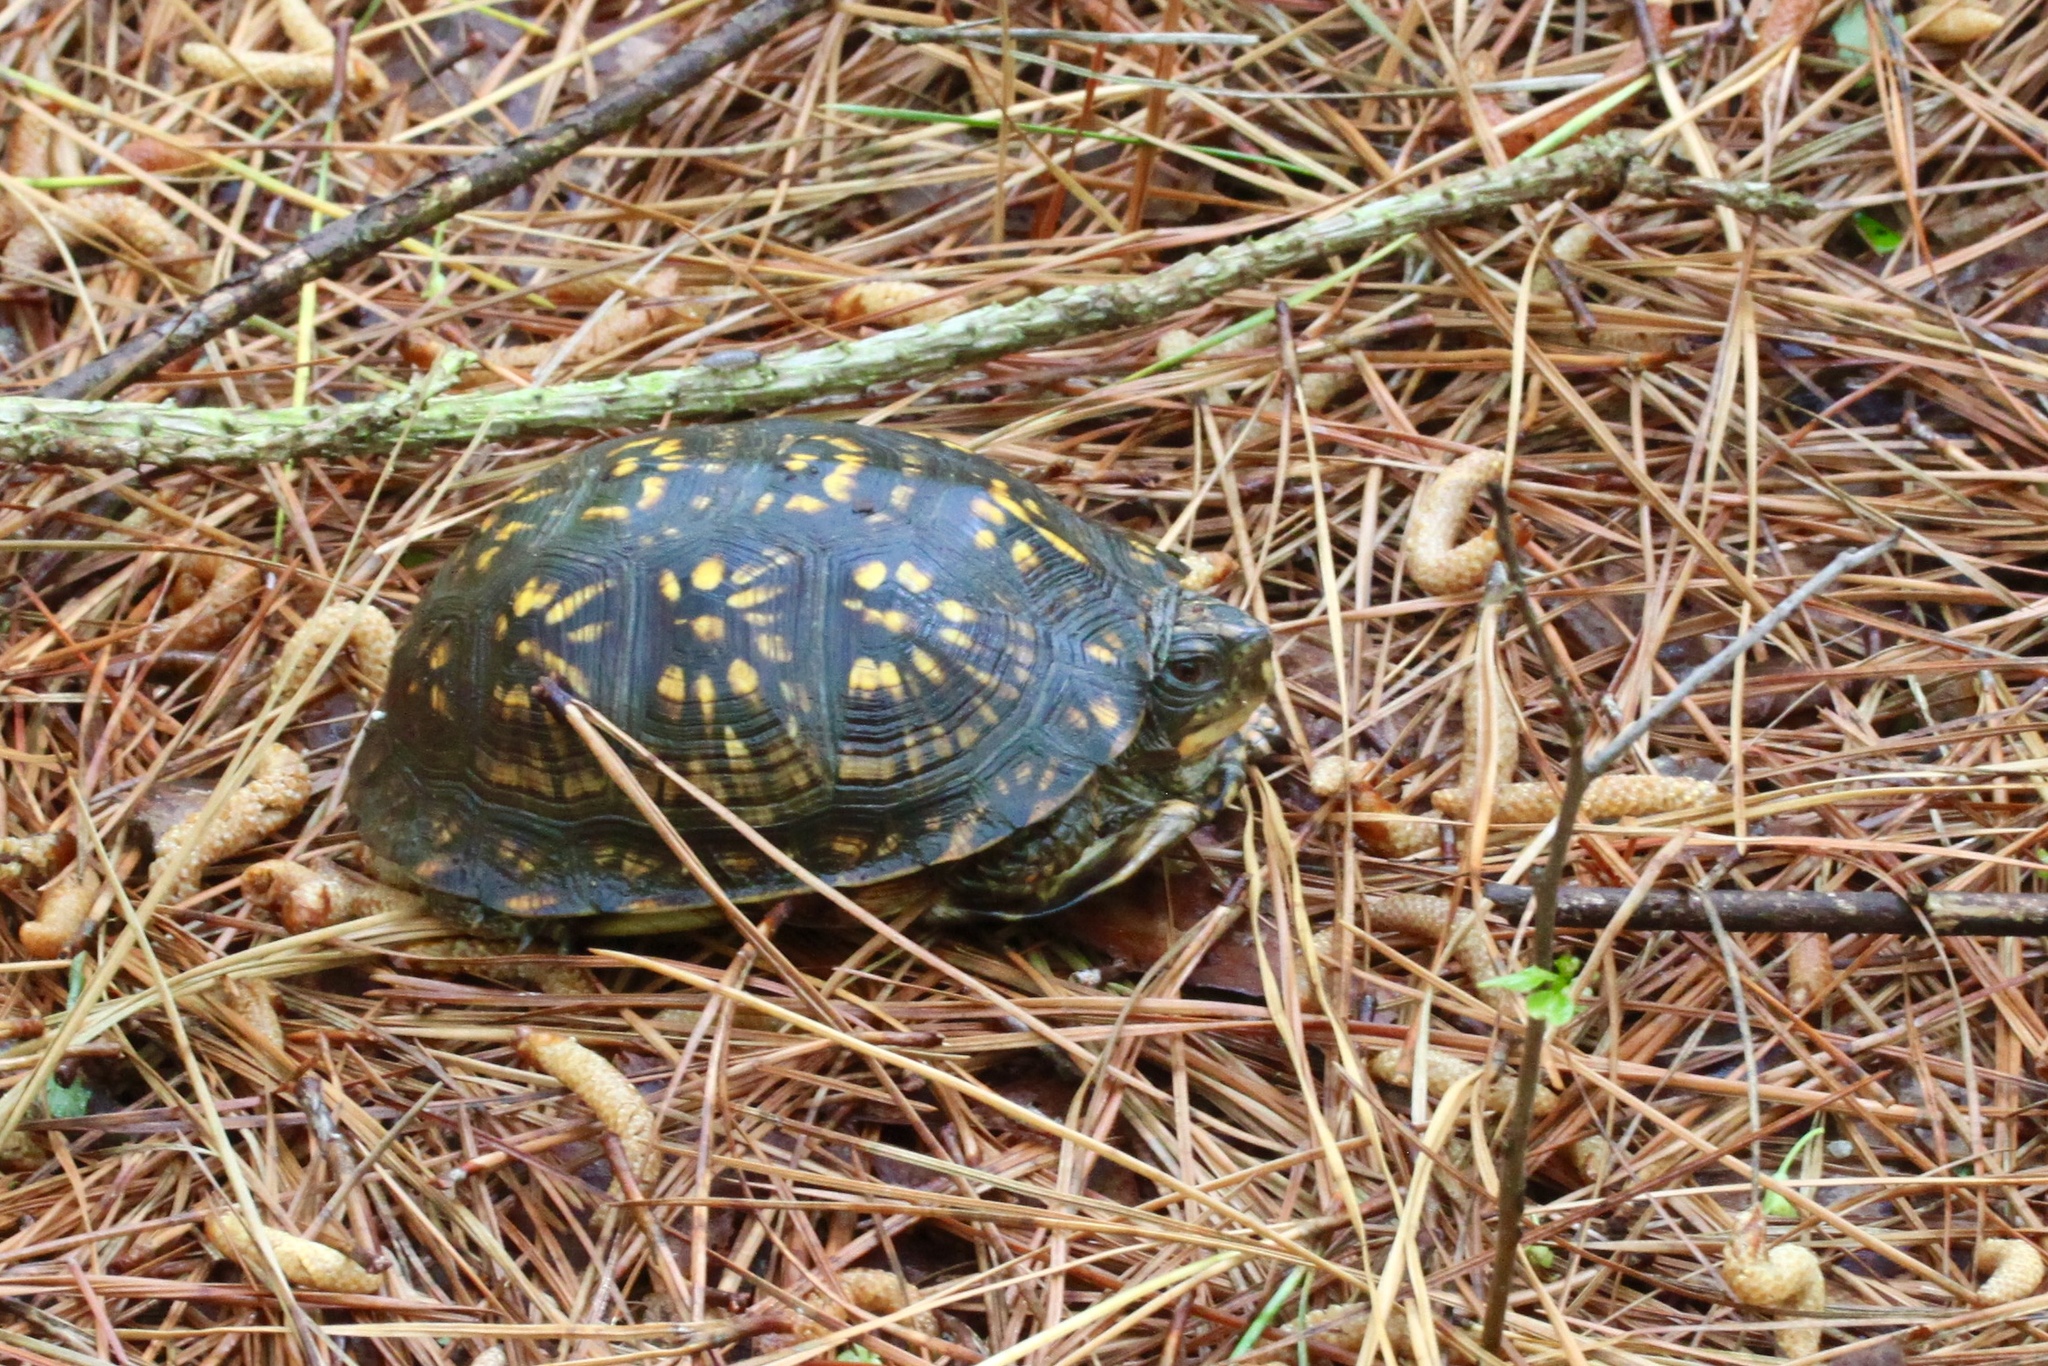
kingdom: Animalia
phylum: Chordata
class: Testudines
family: Emydidae
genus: Terrapene
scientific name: Terrapene carolina
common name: Common box turtle
